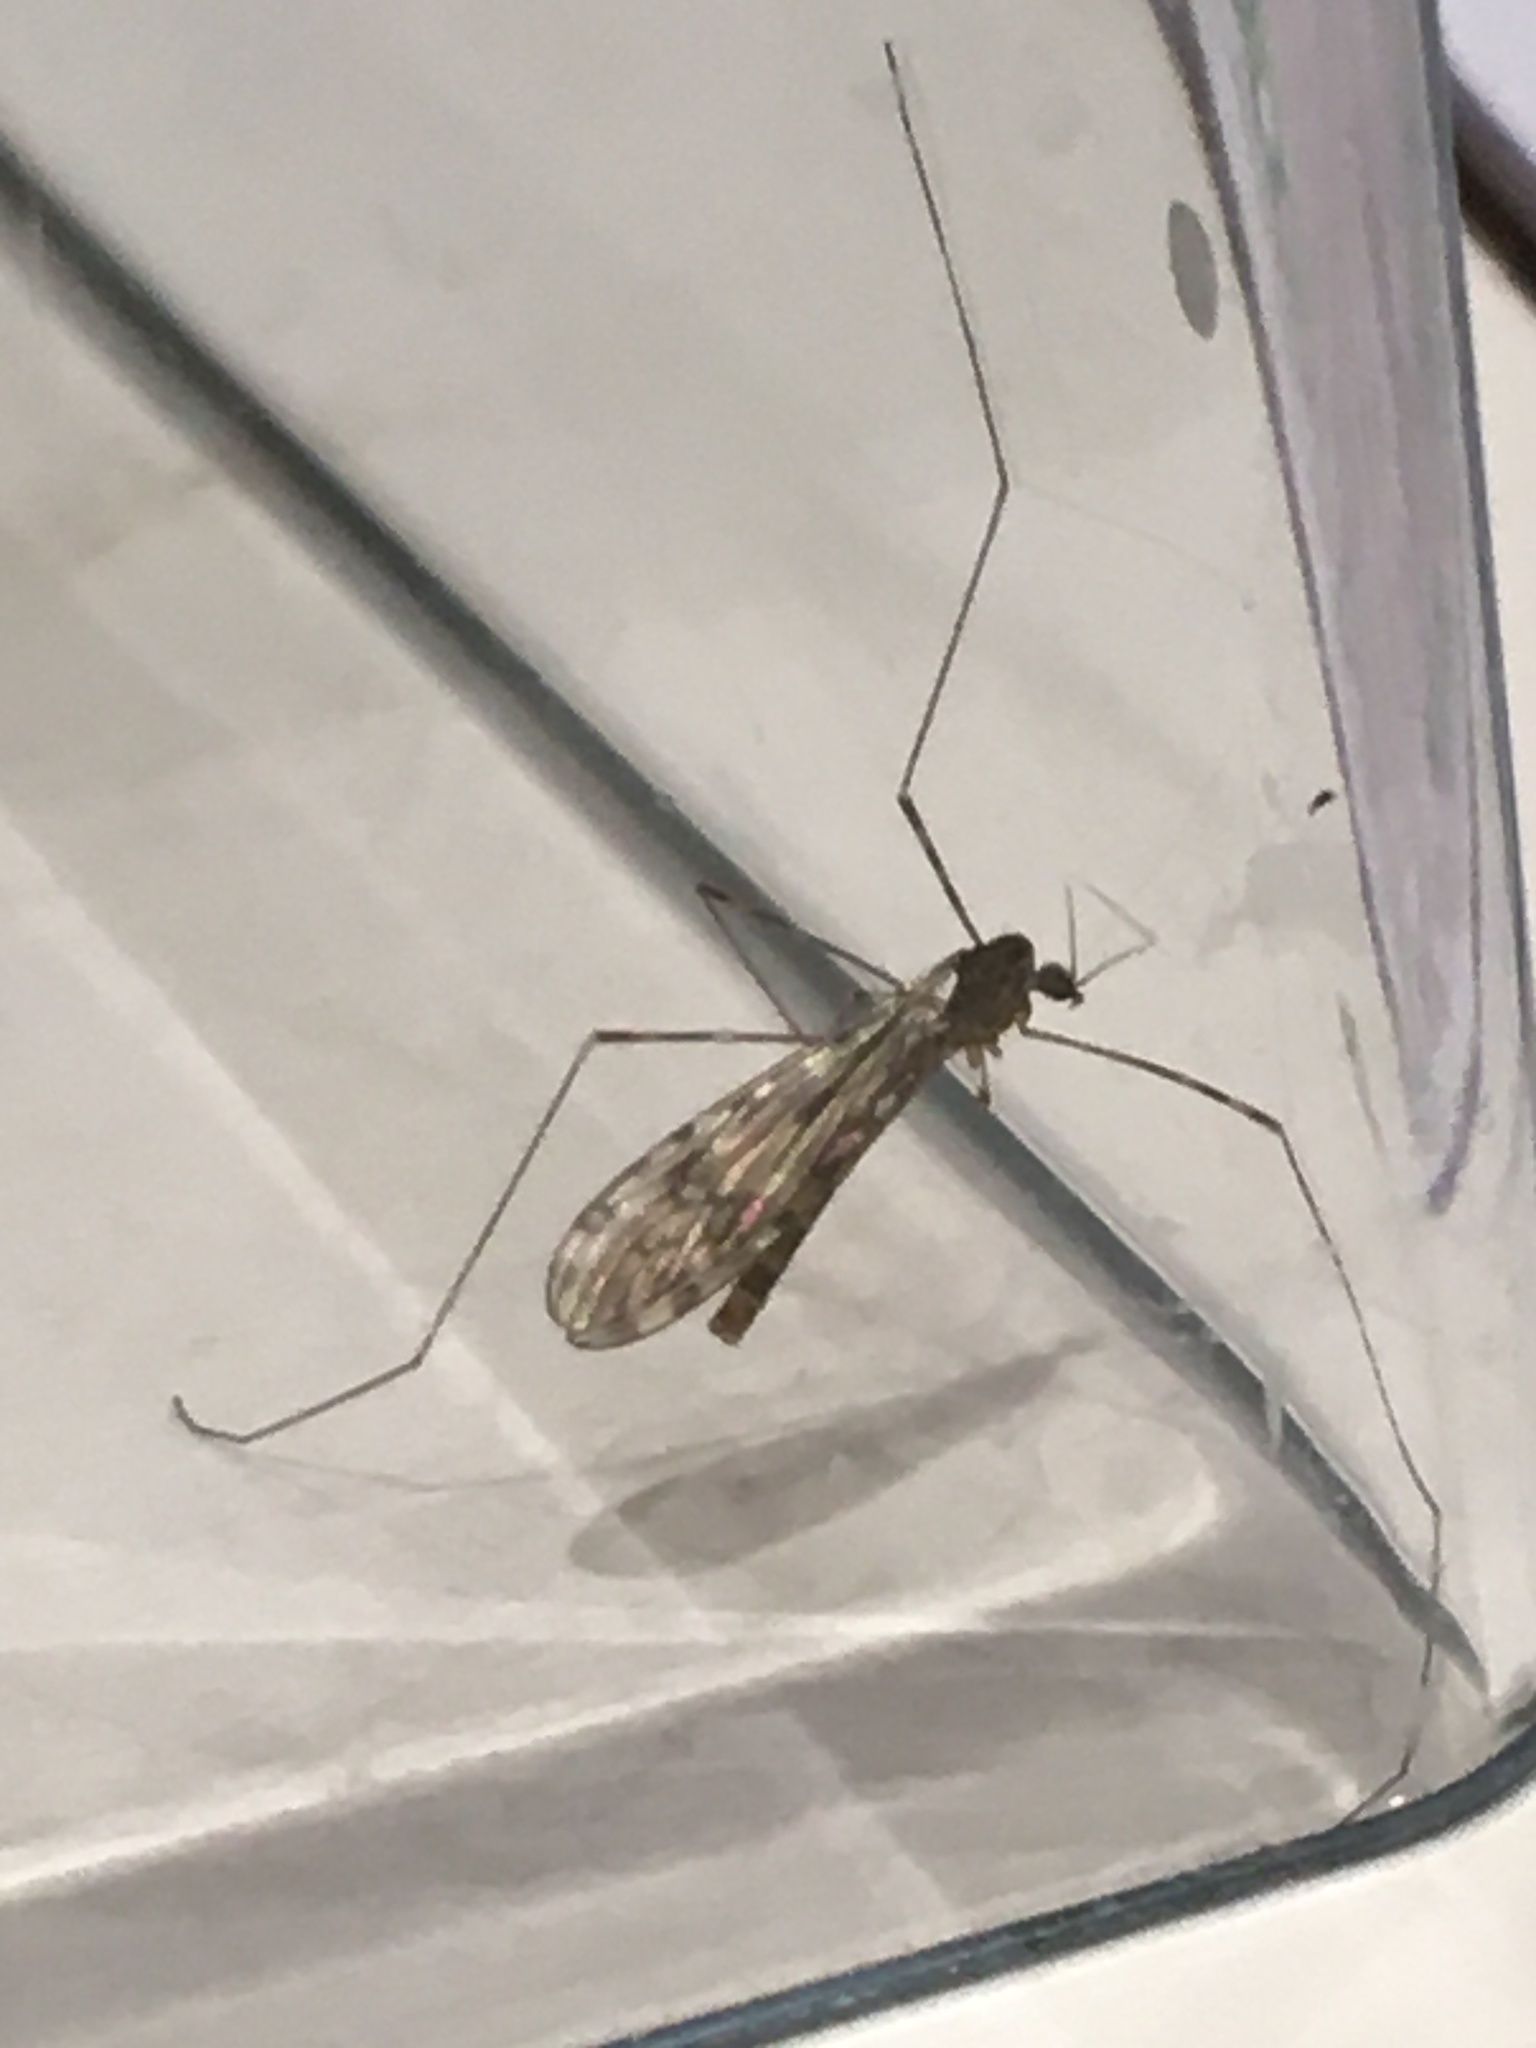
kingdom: Animalia
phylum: Arthropoda
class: Insecta
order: Diptera
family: Limoniidae
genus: Limonia
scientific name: Limonia nubeculosa
